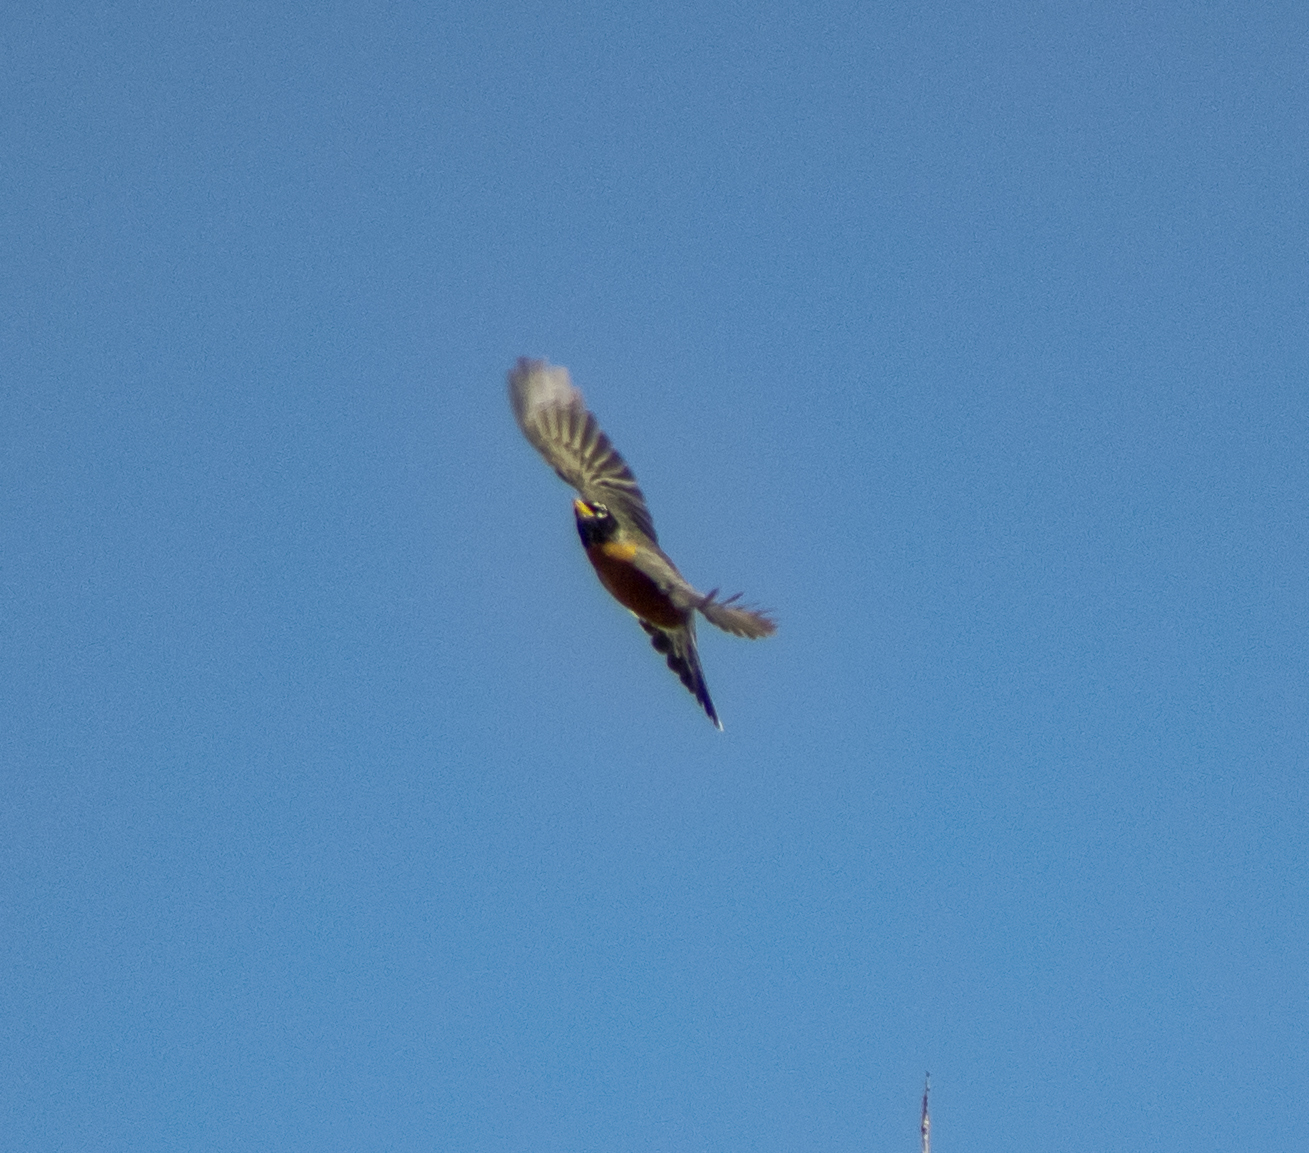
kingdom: Animalia
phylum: Chordata
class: Aves
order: Passeriformes
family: Turdidae
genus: Turdus
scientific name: Turdus migratorius
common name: American robin
